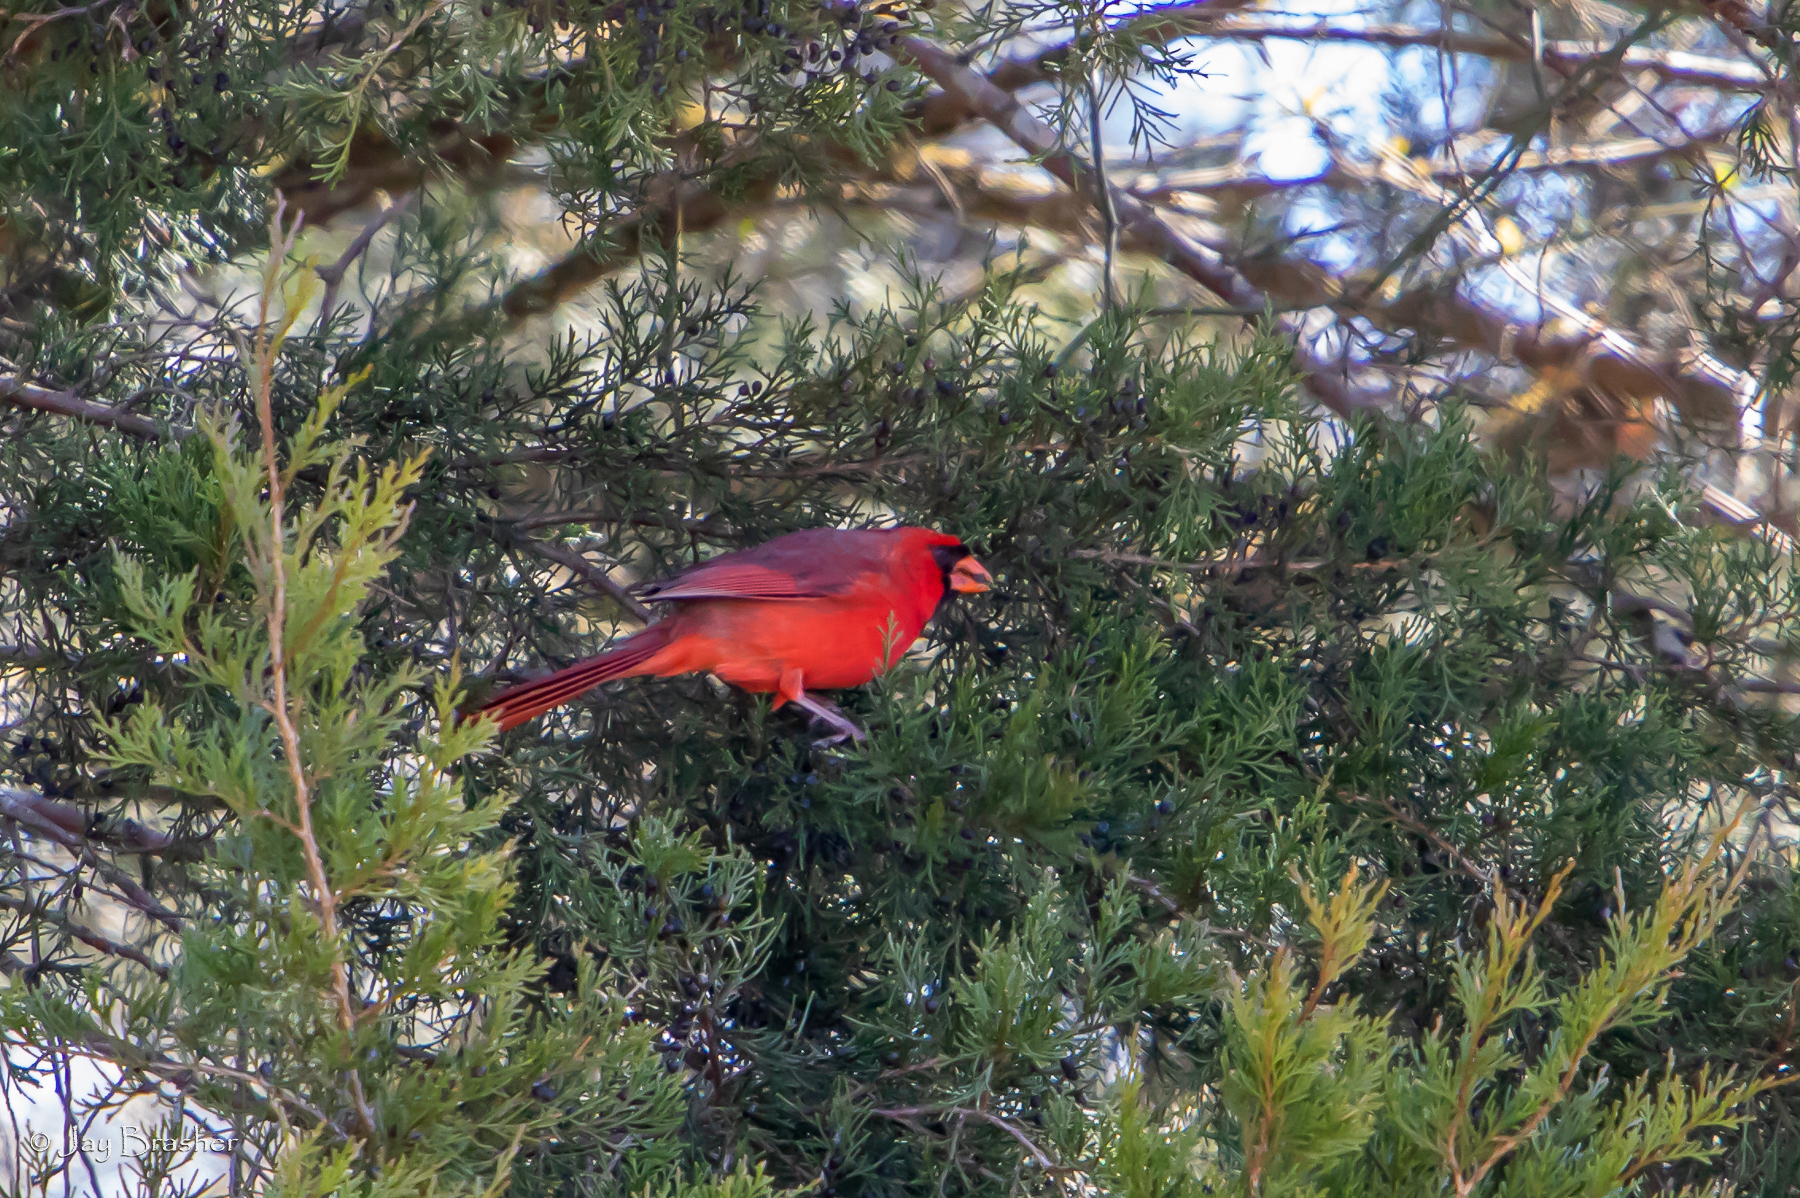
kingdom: Animalia
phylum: Chordata
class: Aves
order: Passeriformes
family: Cardinalidae
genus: Cardinalis
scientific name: Cardinalis cardinalis
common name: Northern cardinal
